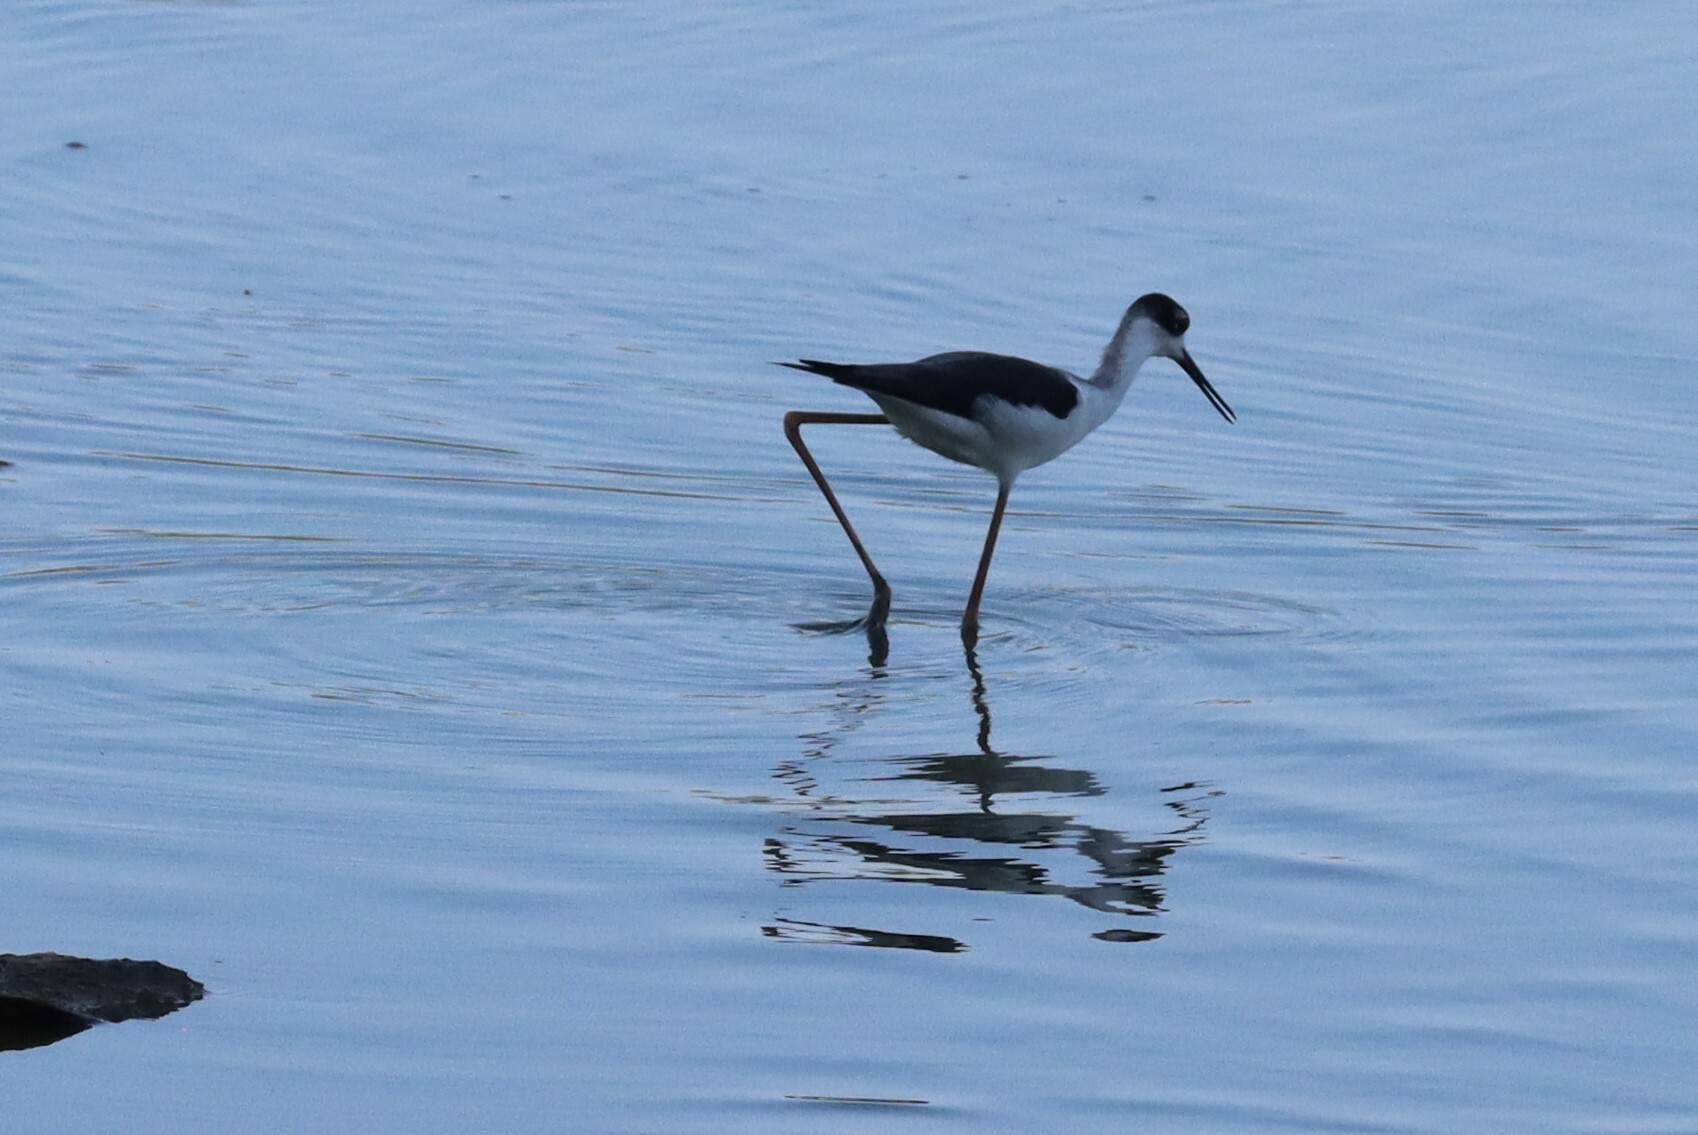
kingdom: Animalia
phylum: Chordata
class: Aves
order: Charadriiformes
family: Recurvirostridae
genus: Himantopus
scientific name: Himantopus mexicanus
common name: Black-necked stilt
